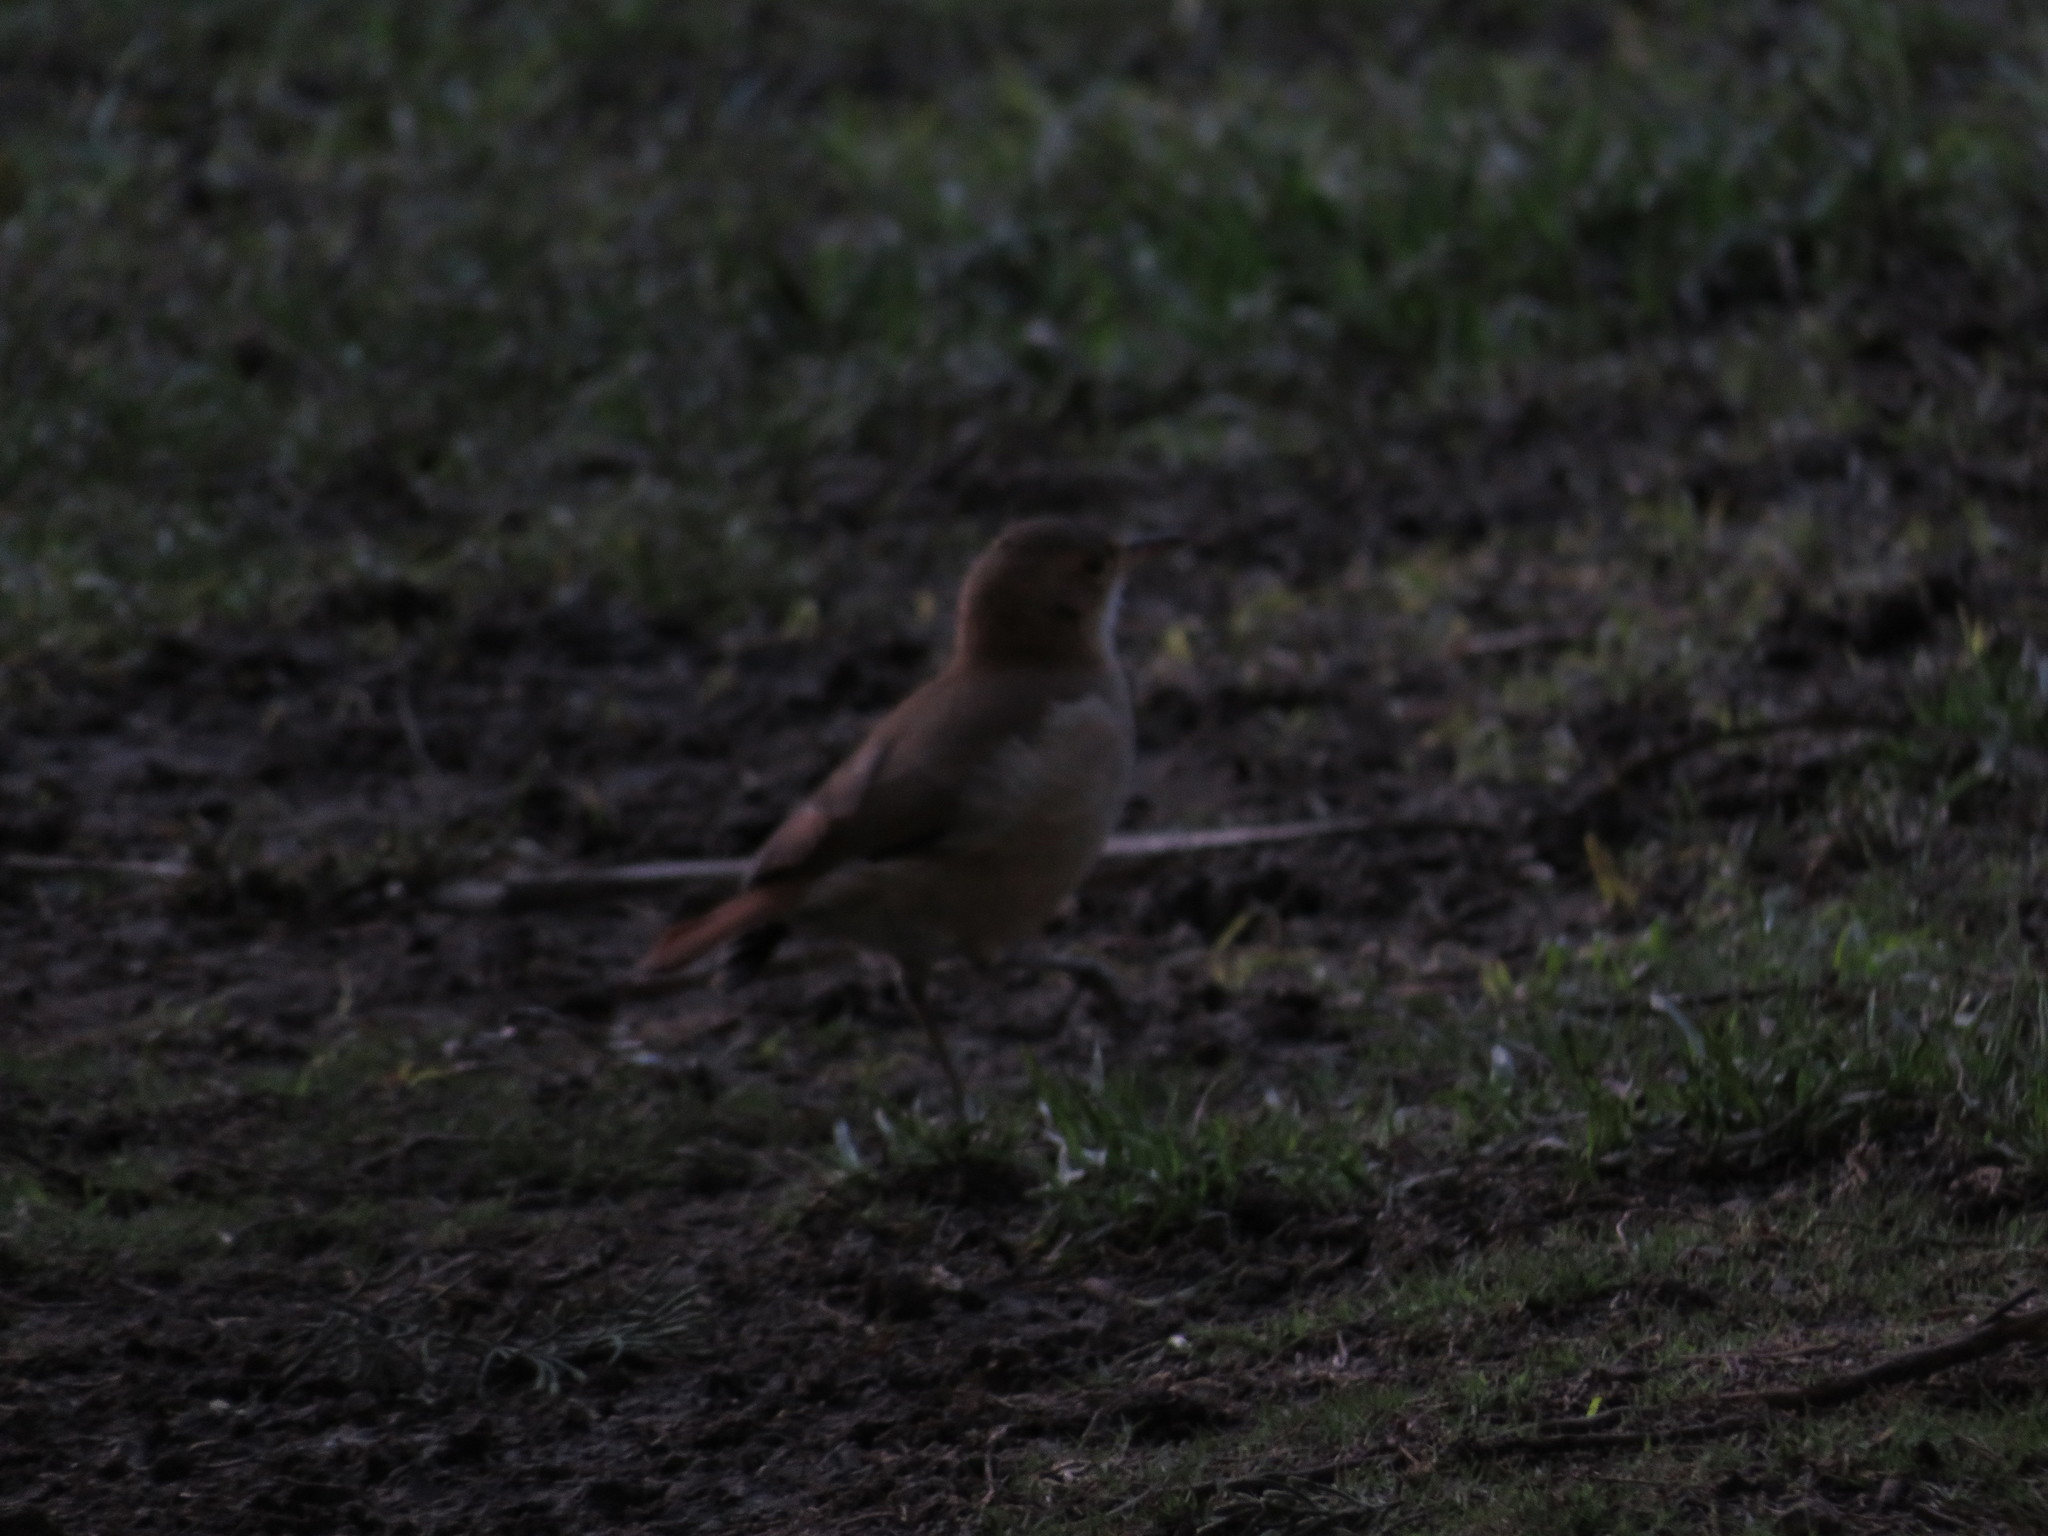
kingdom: Animalia
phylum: Chordata
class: Aves
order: Passeriformes
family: Furnariidae
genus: Furnarius
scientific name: Furnarius rufus
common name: Rufous hornero
